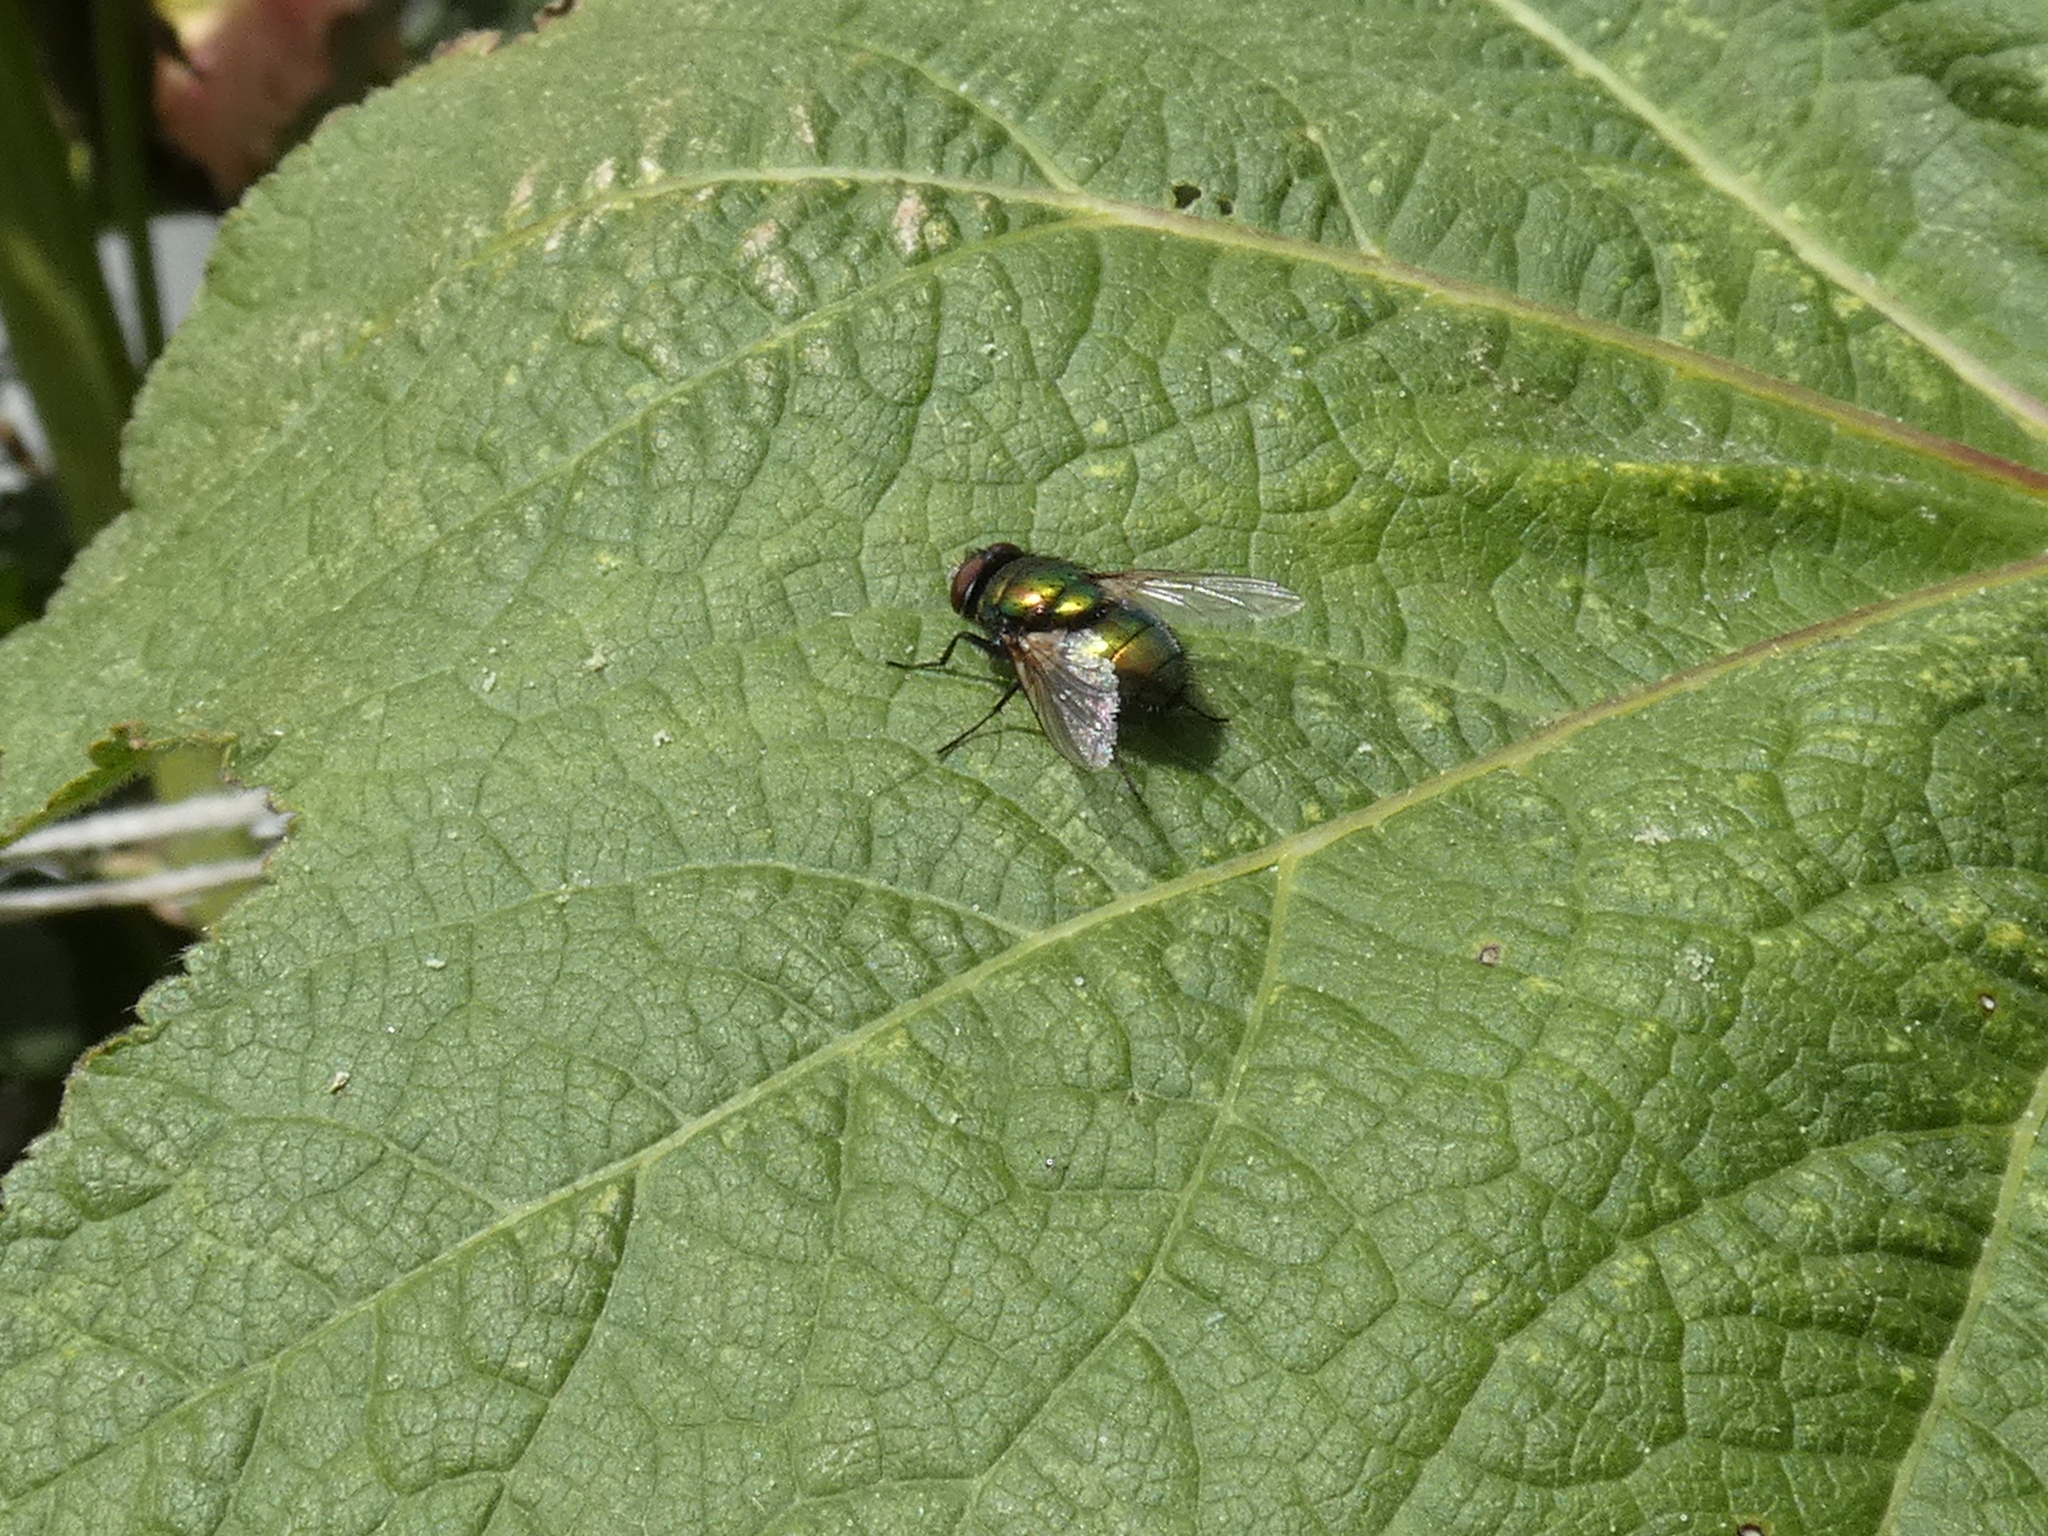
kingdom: Animalia
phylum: Arthropoda
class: Insecta
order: Diptera
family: Calliphoridae
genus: Lucilia
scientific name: Lucilia
